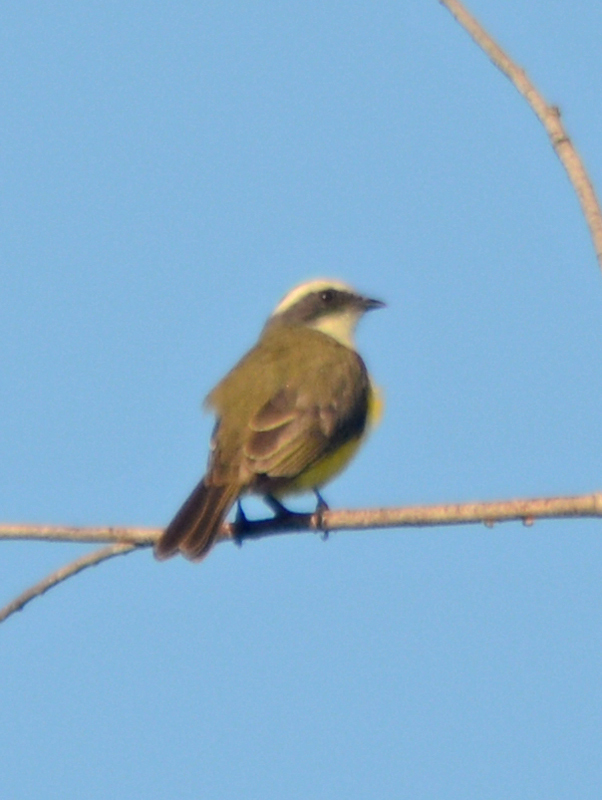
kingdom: Animalia
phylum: Chordata
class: Aves
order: Passeriformes
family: Tyrannidae
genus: Myiozetetes
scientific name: Myiozetetes similis
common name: Social flycatcher
